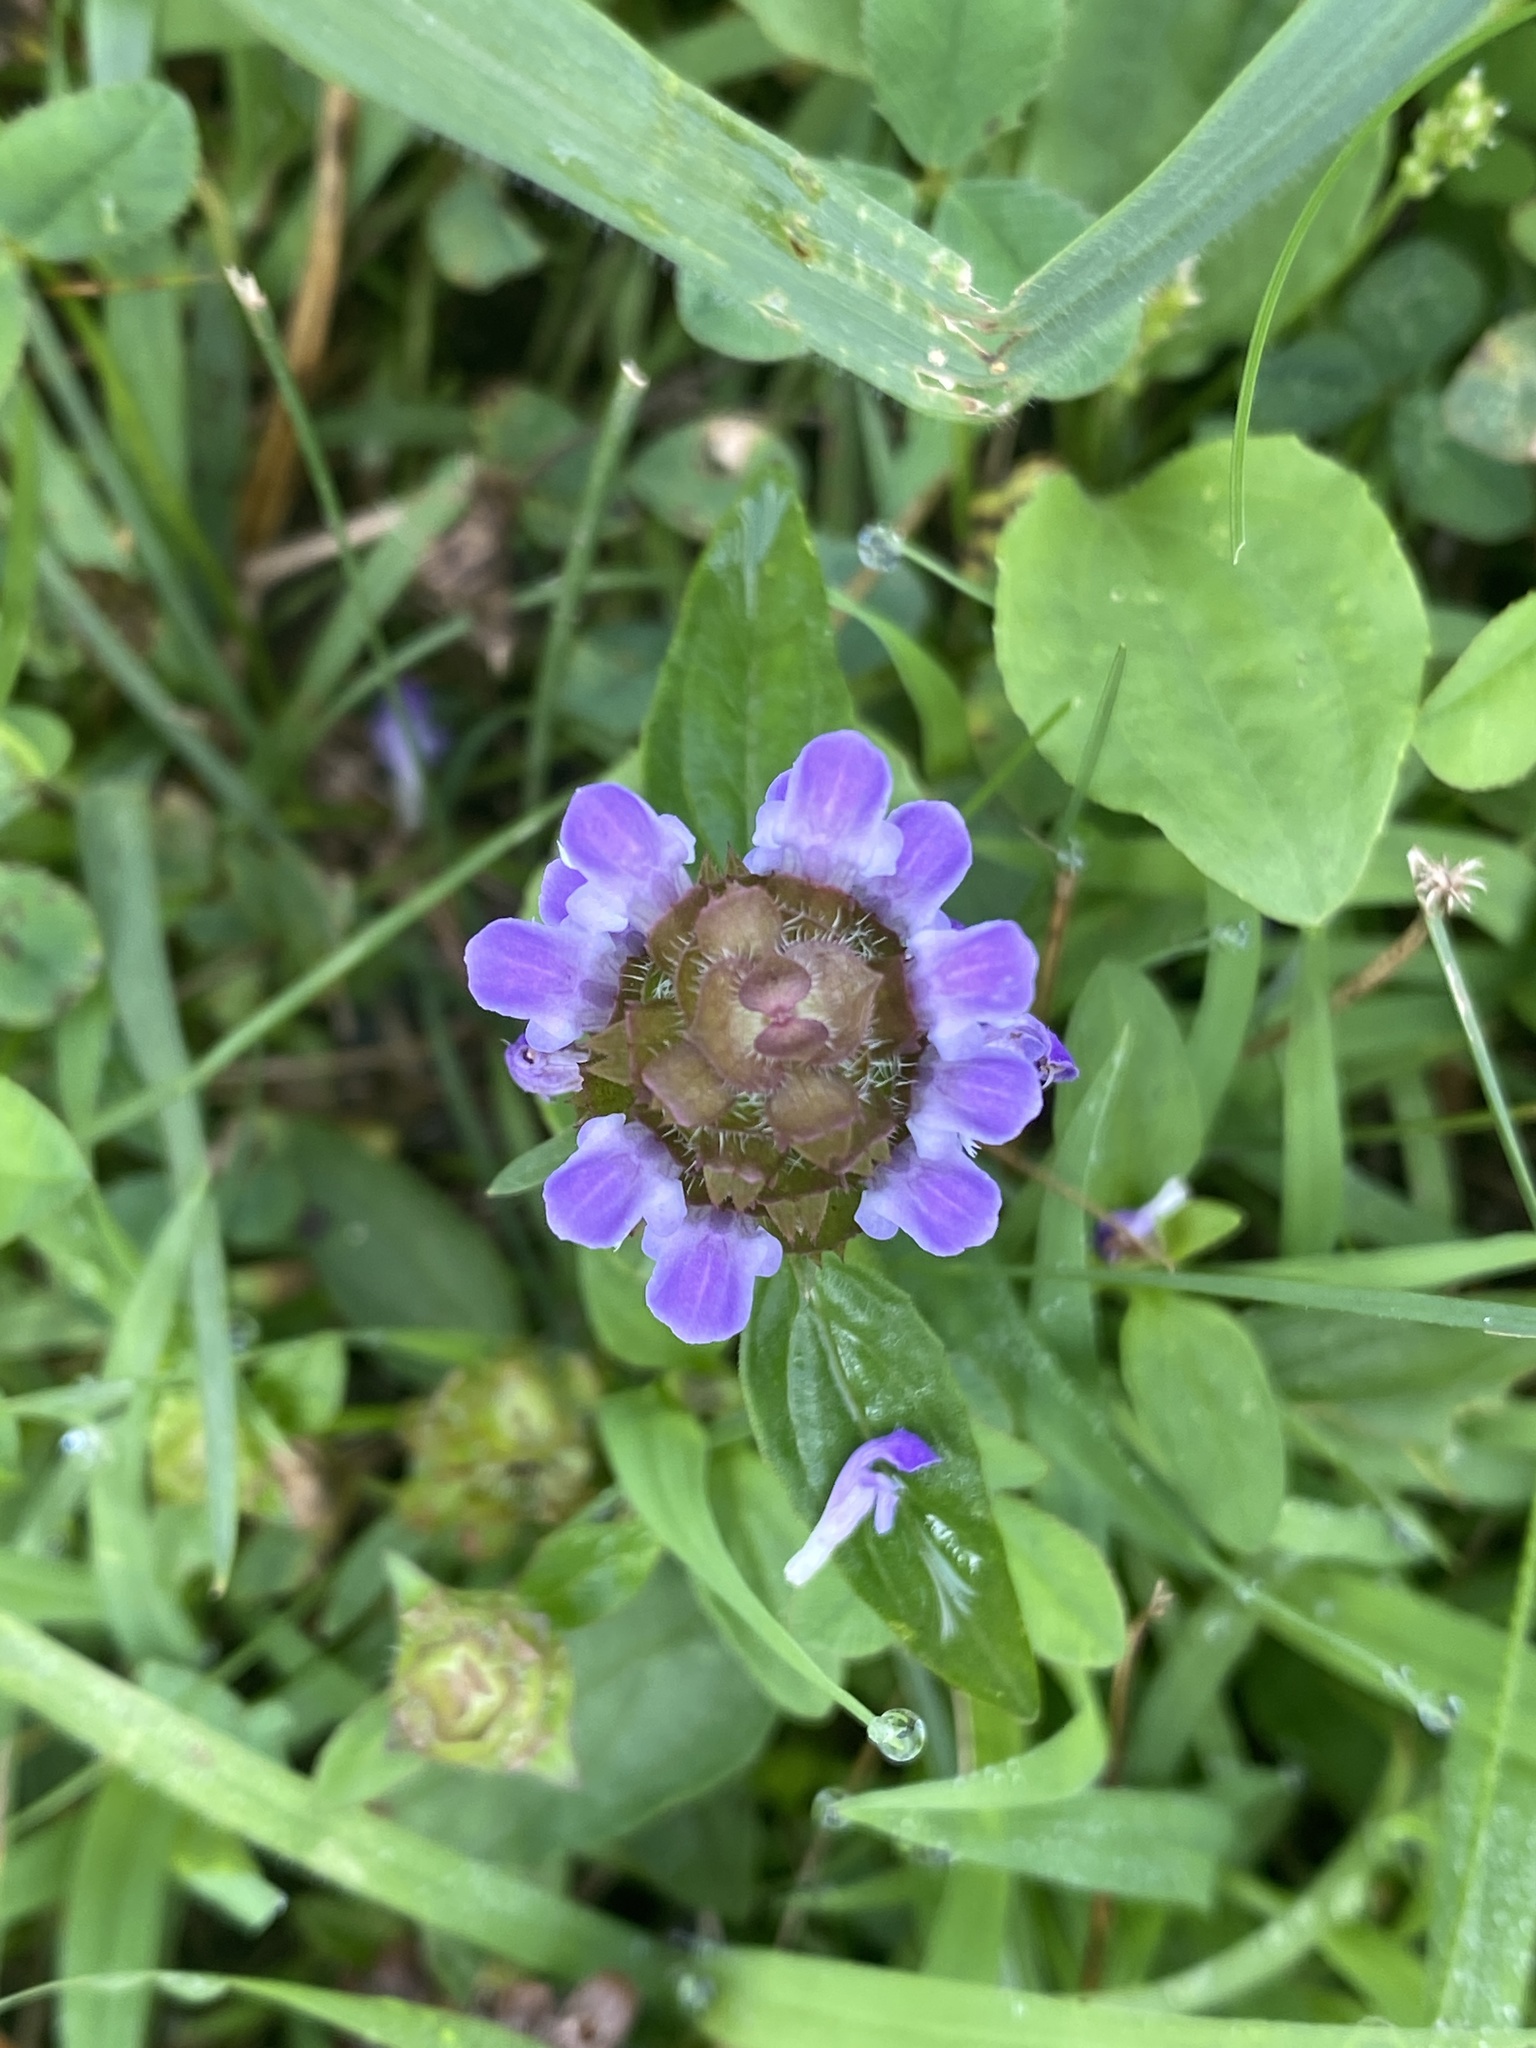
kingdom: Plantae
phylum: Tracheophyta
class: Magnoliopsida
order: Lamiales
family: Lamiaceae
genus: Prunella
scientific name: Prunella vulgaris
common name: Heal-all
